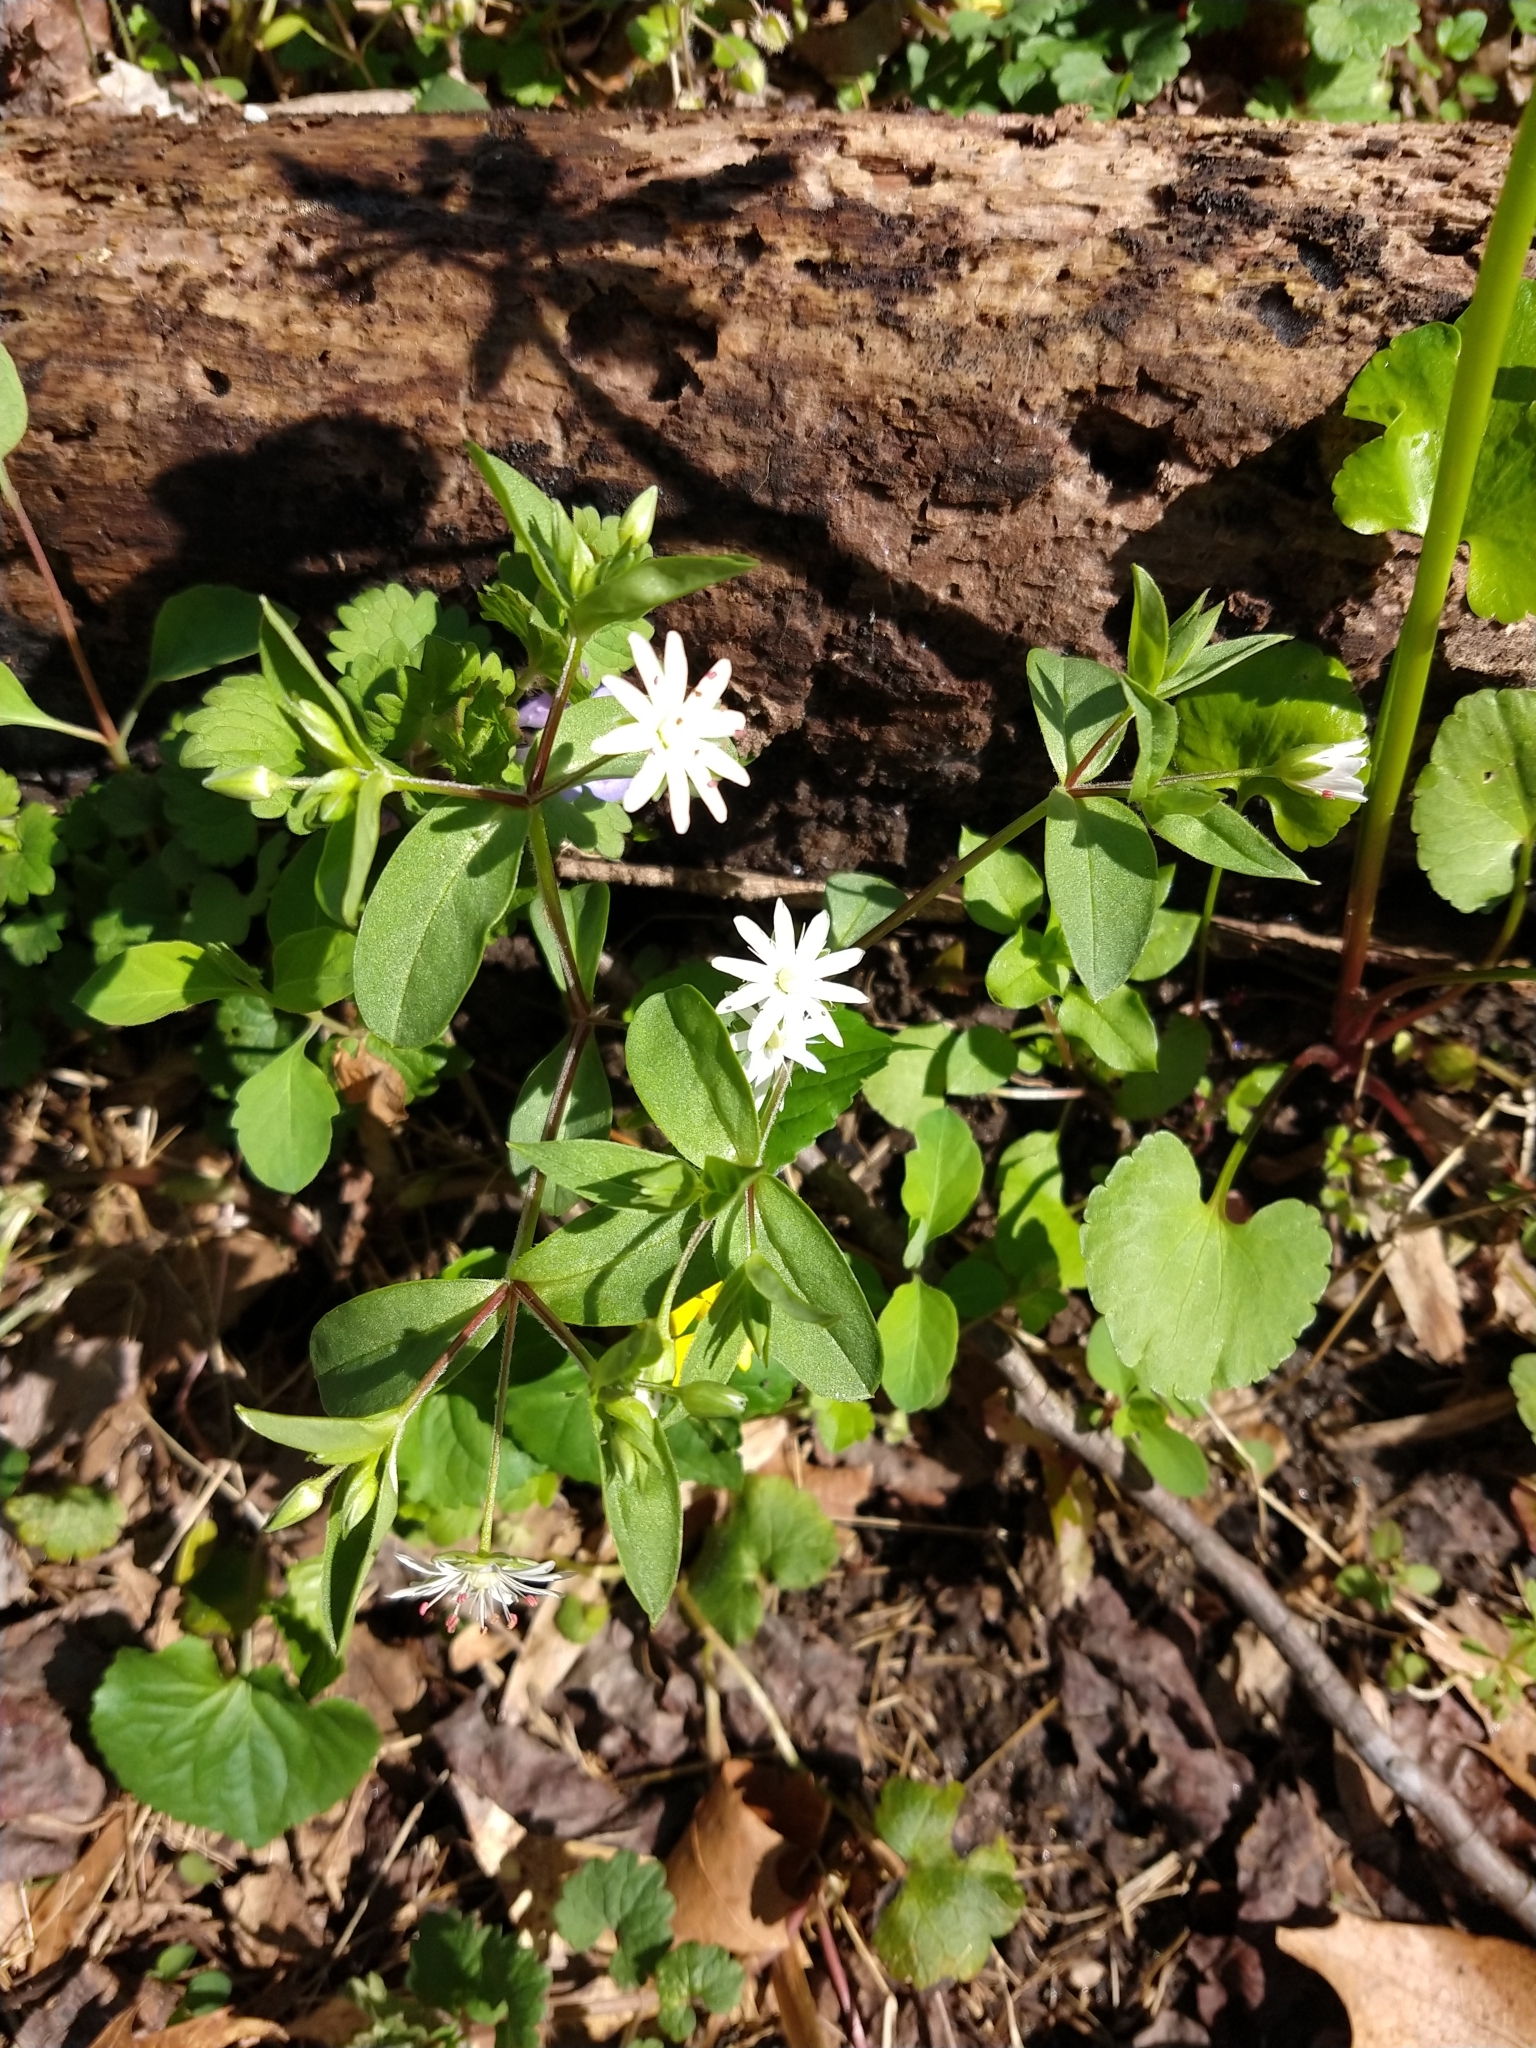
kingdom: Plantae
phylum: Tracheophyta
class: Magnoliopsida
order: Caryophyllales
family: Caryophyllaceae
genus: Stellaria
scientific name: Stellaria pubera
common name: Star chickweed
